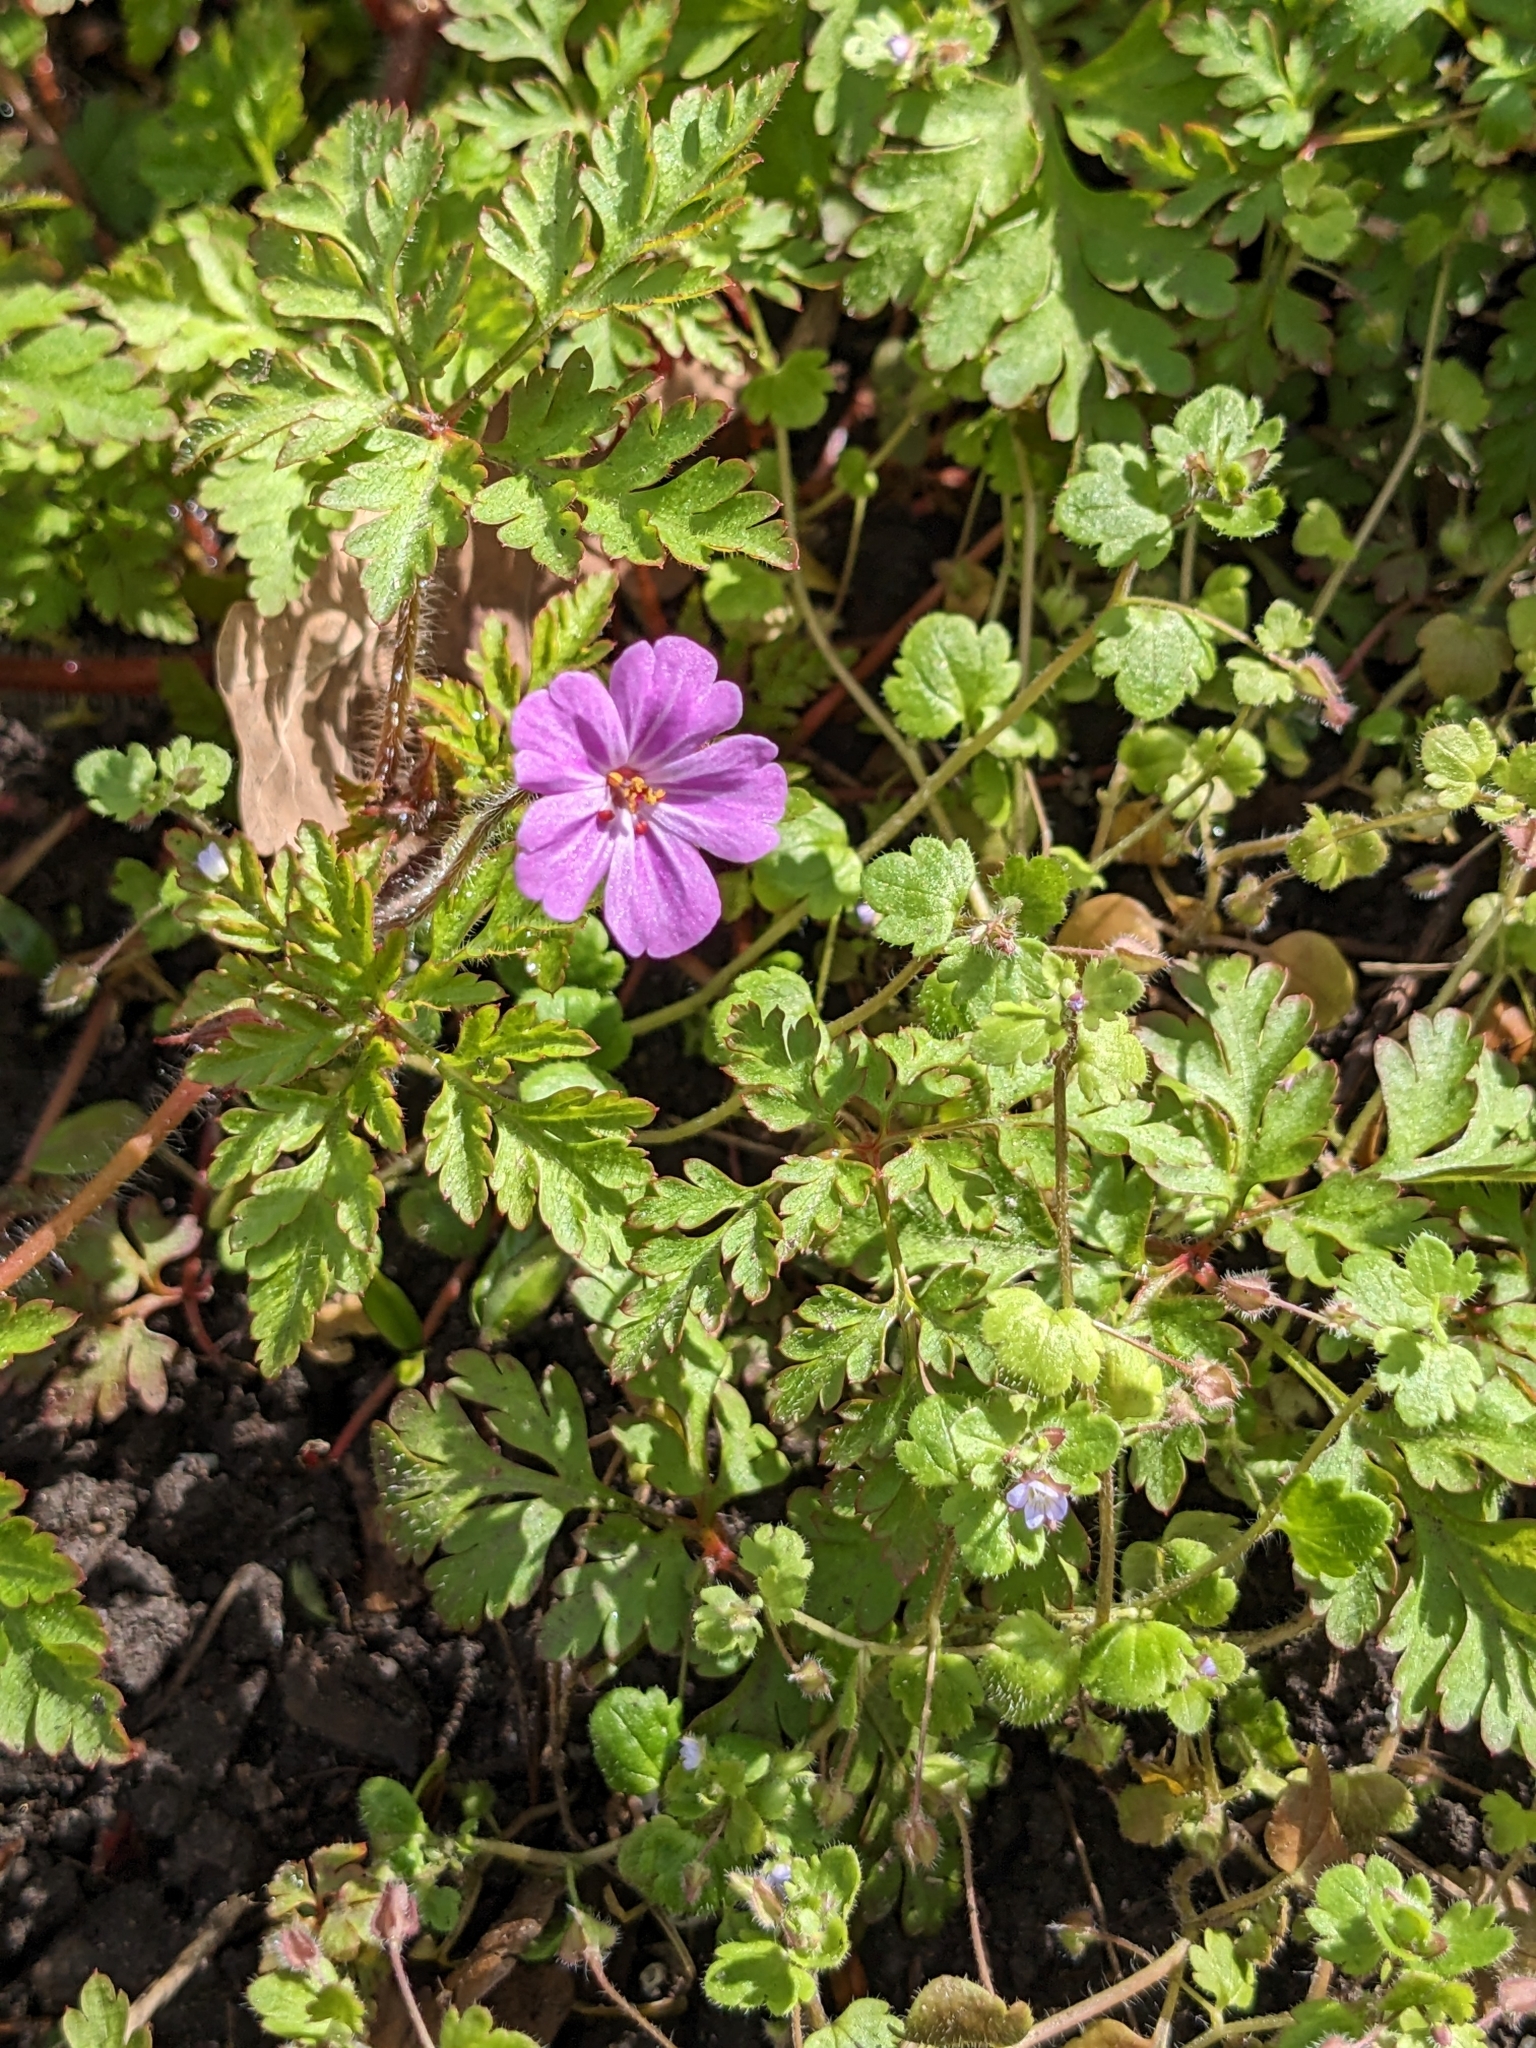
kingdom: Plantae
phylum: Tracheophyta
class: Magnoliopsida
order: Geraniales
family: Geraniaceae
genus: Geranium
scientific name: Geranium robertianum
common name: Herb-robert
